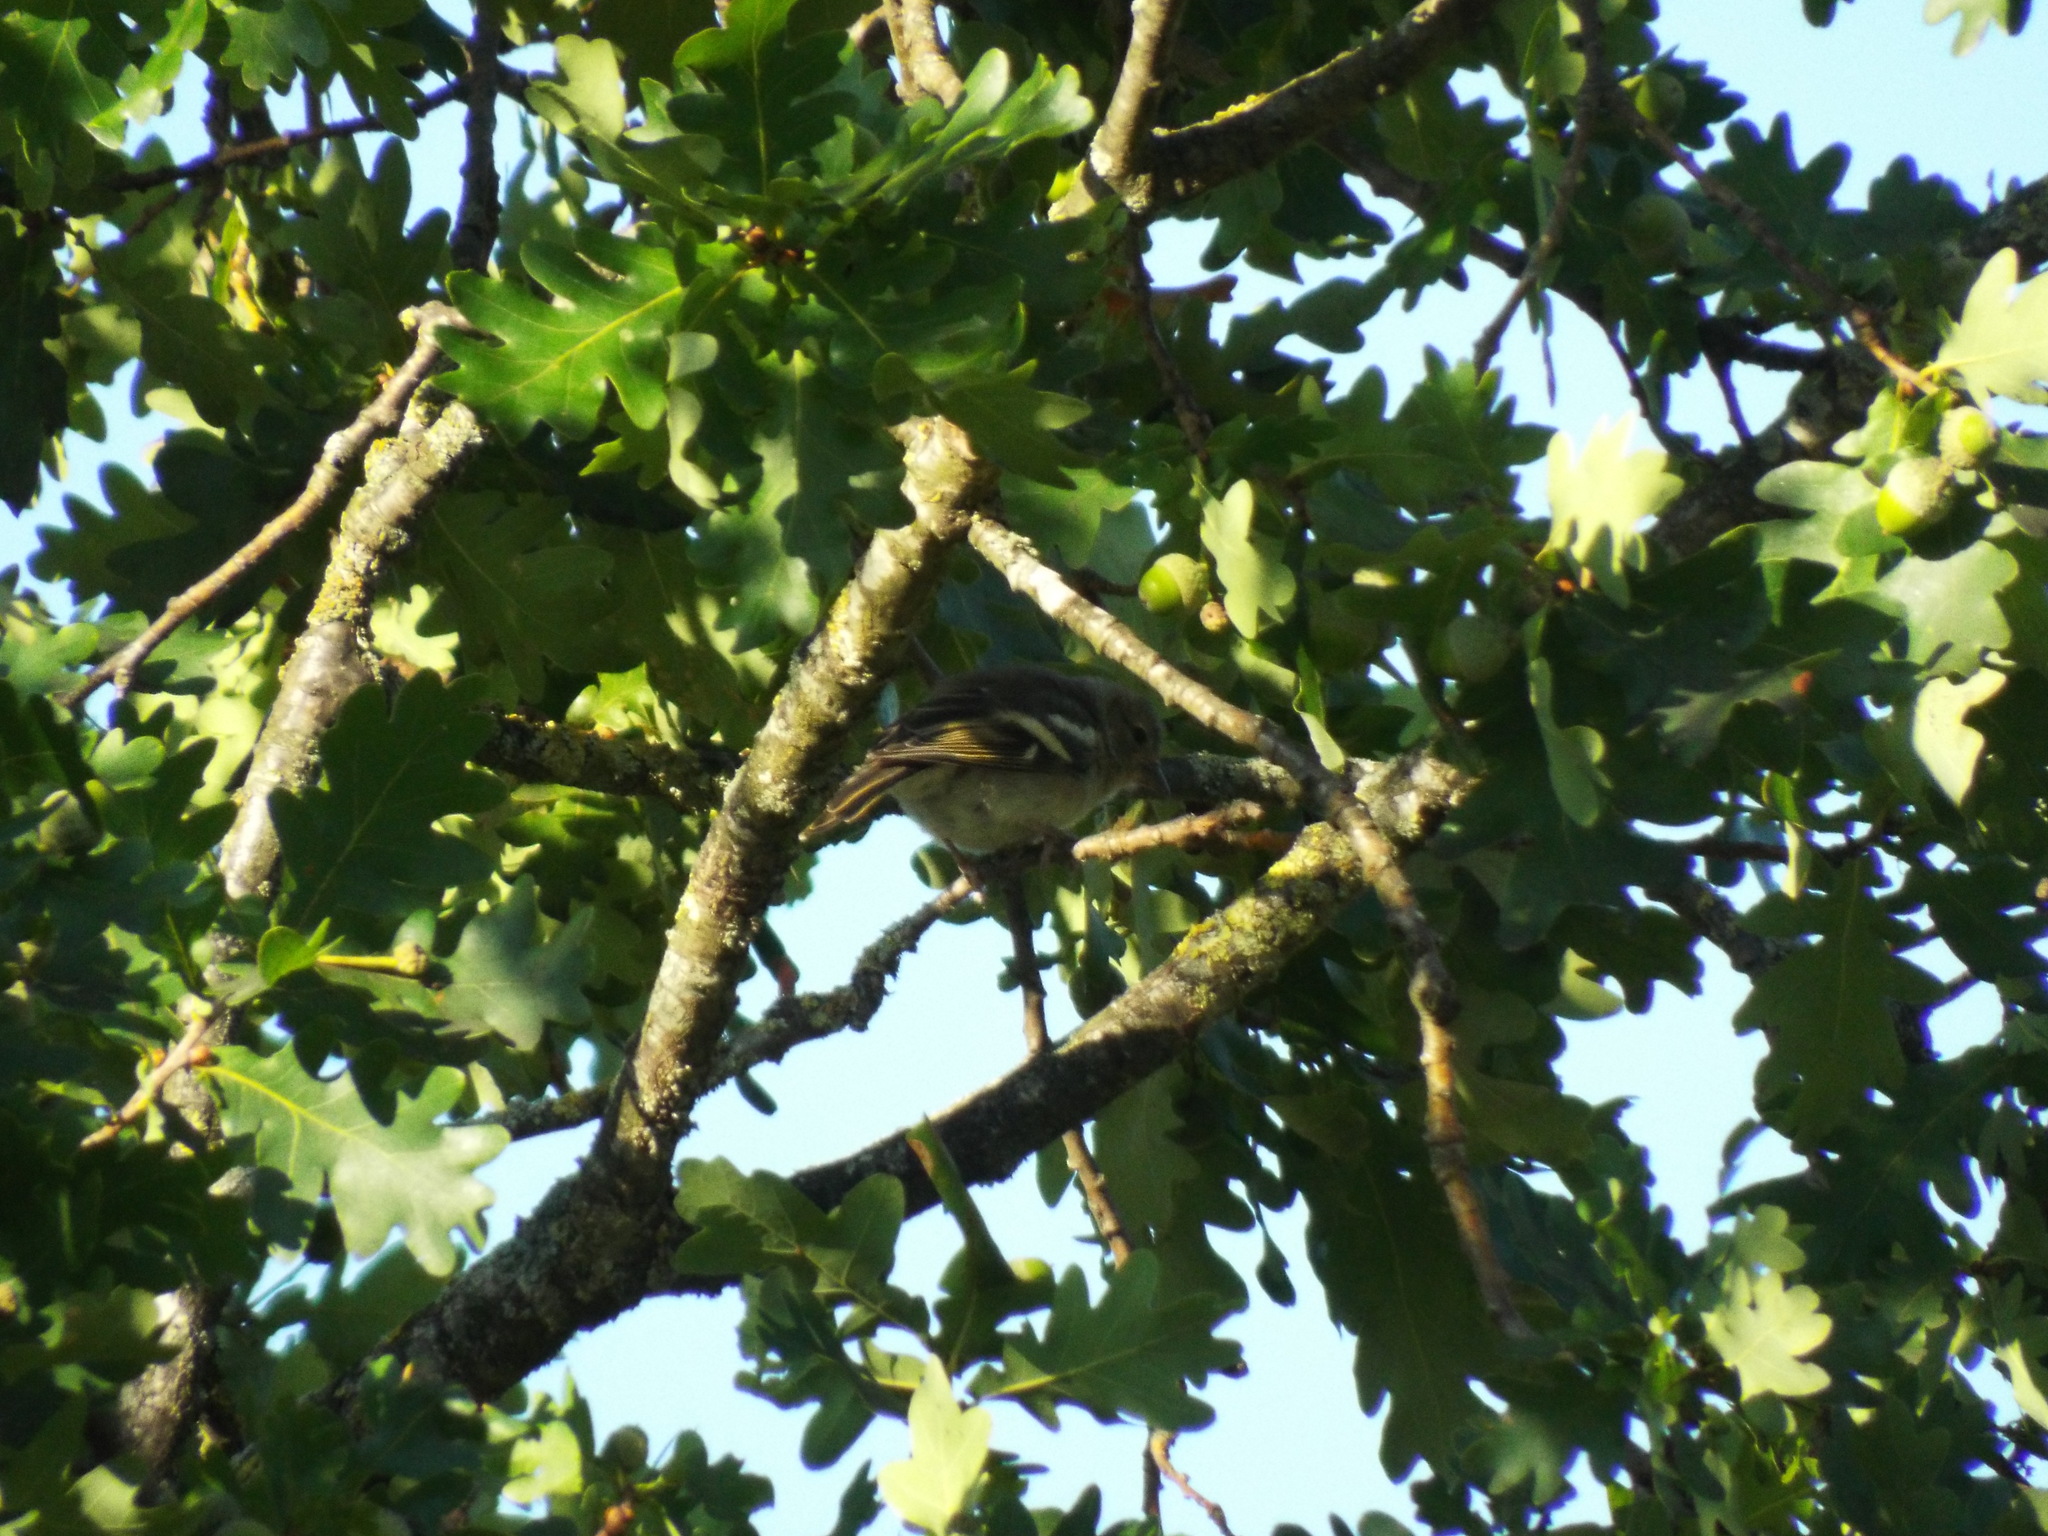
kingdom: Animalia
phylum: Chordata
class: Aves
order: Passeriformes
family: Fringillidae
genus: Fringilla
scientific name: Fringilla coelebs
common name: Common chaffinch
